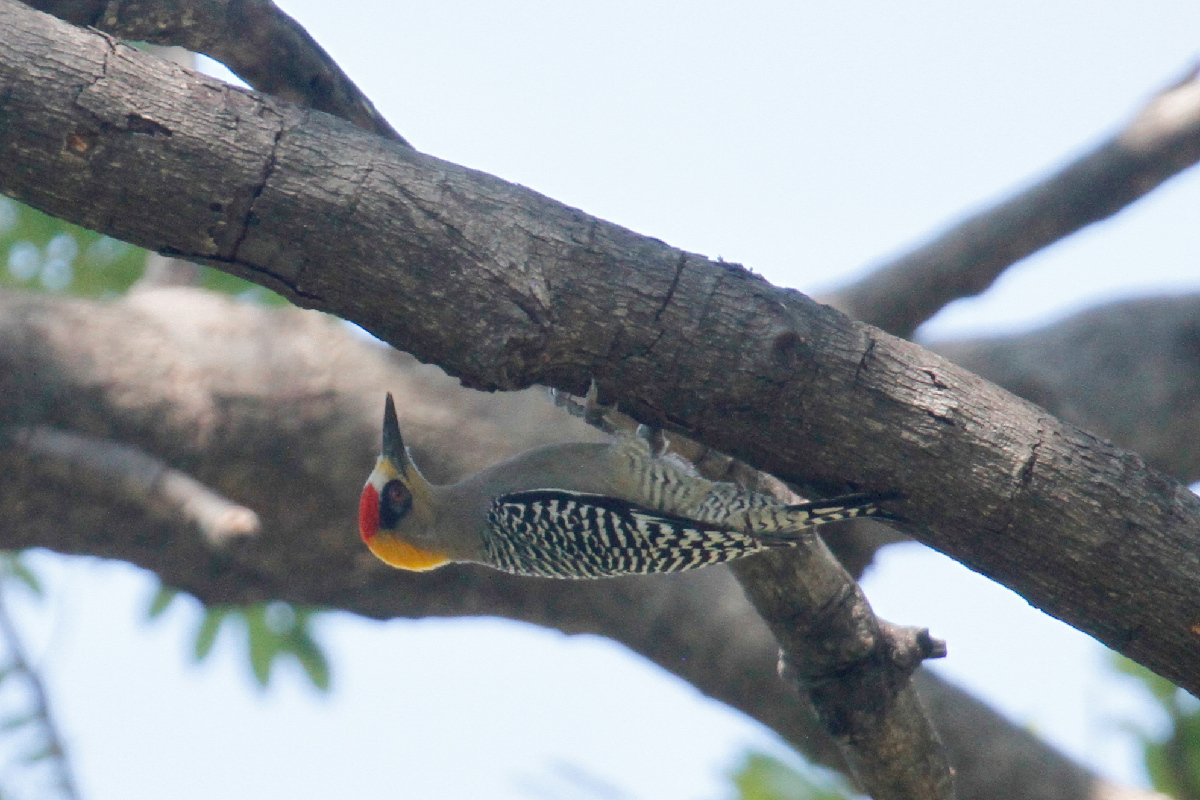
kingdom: Animalia
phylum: Chordata
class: Aves
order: Piciformes
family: Picidae
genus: Melanerpes
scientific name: Melanerpes chrysogenys
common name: Golden-cheeked woodpecker
